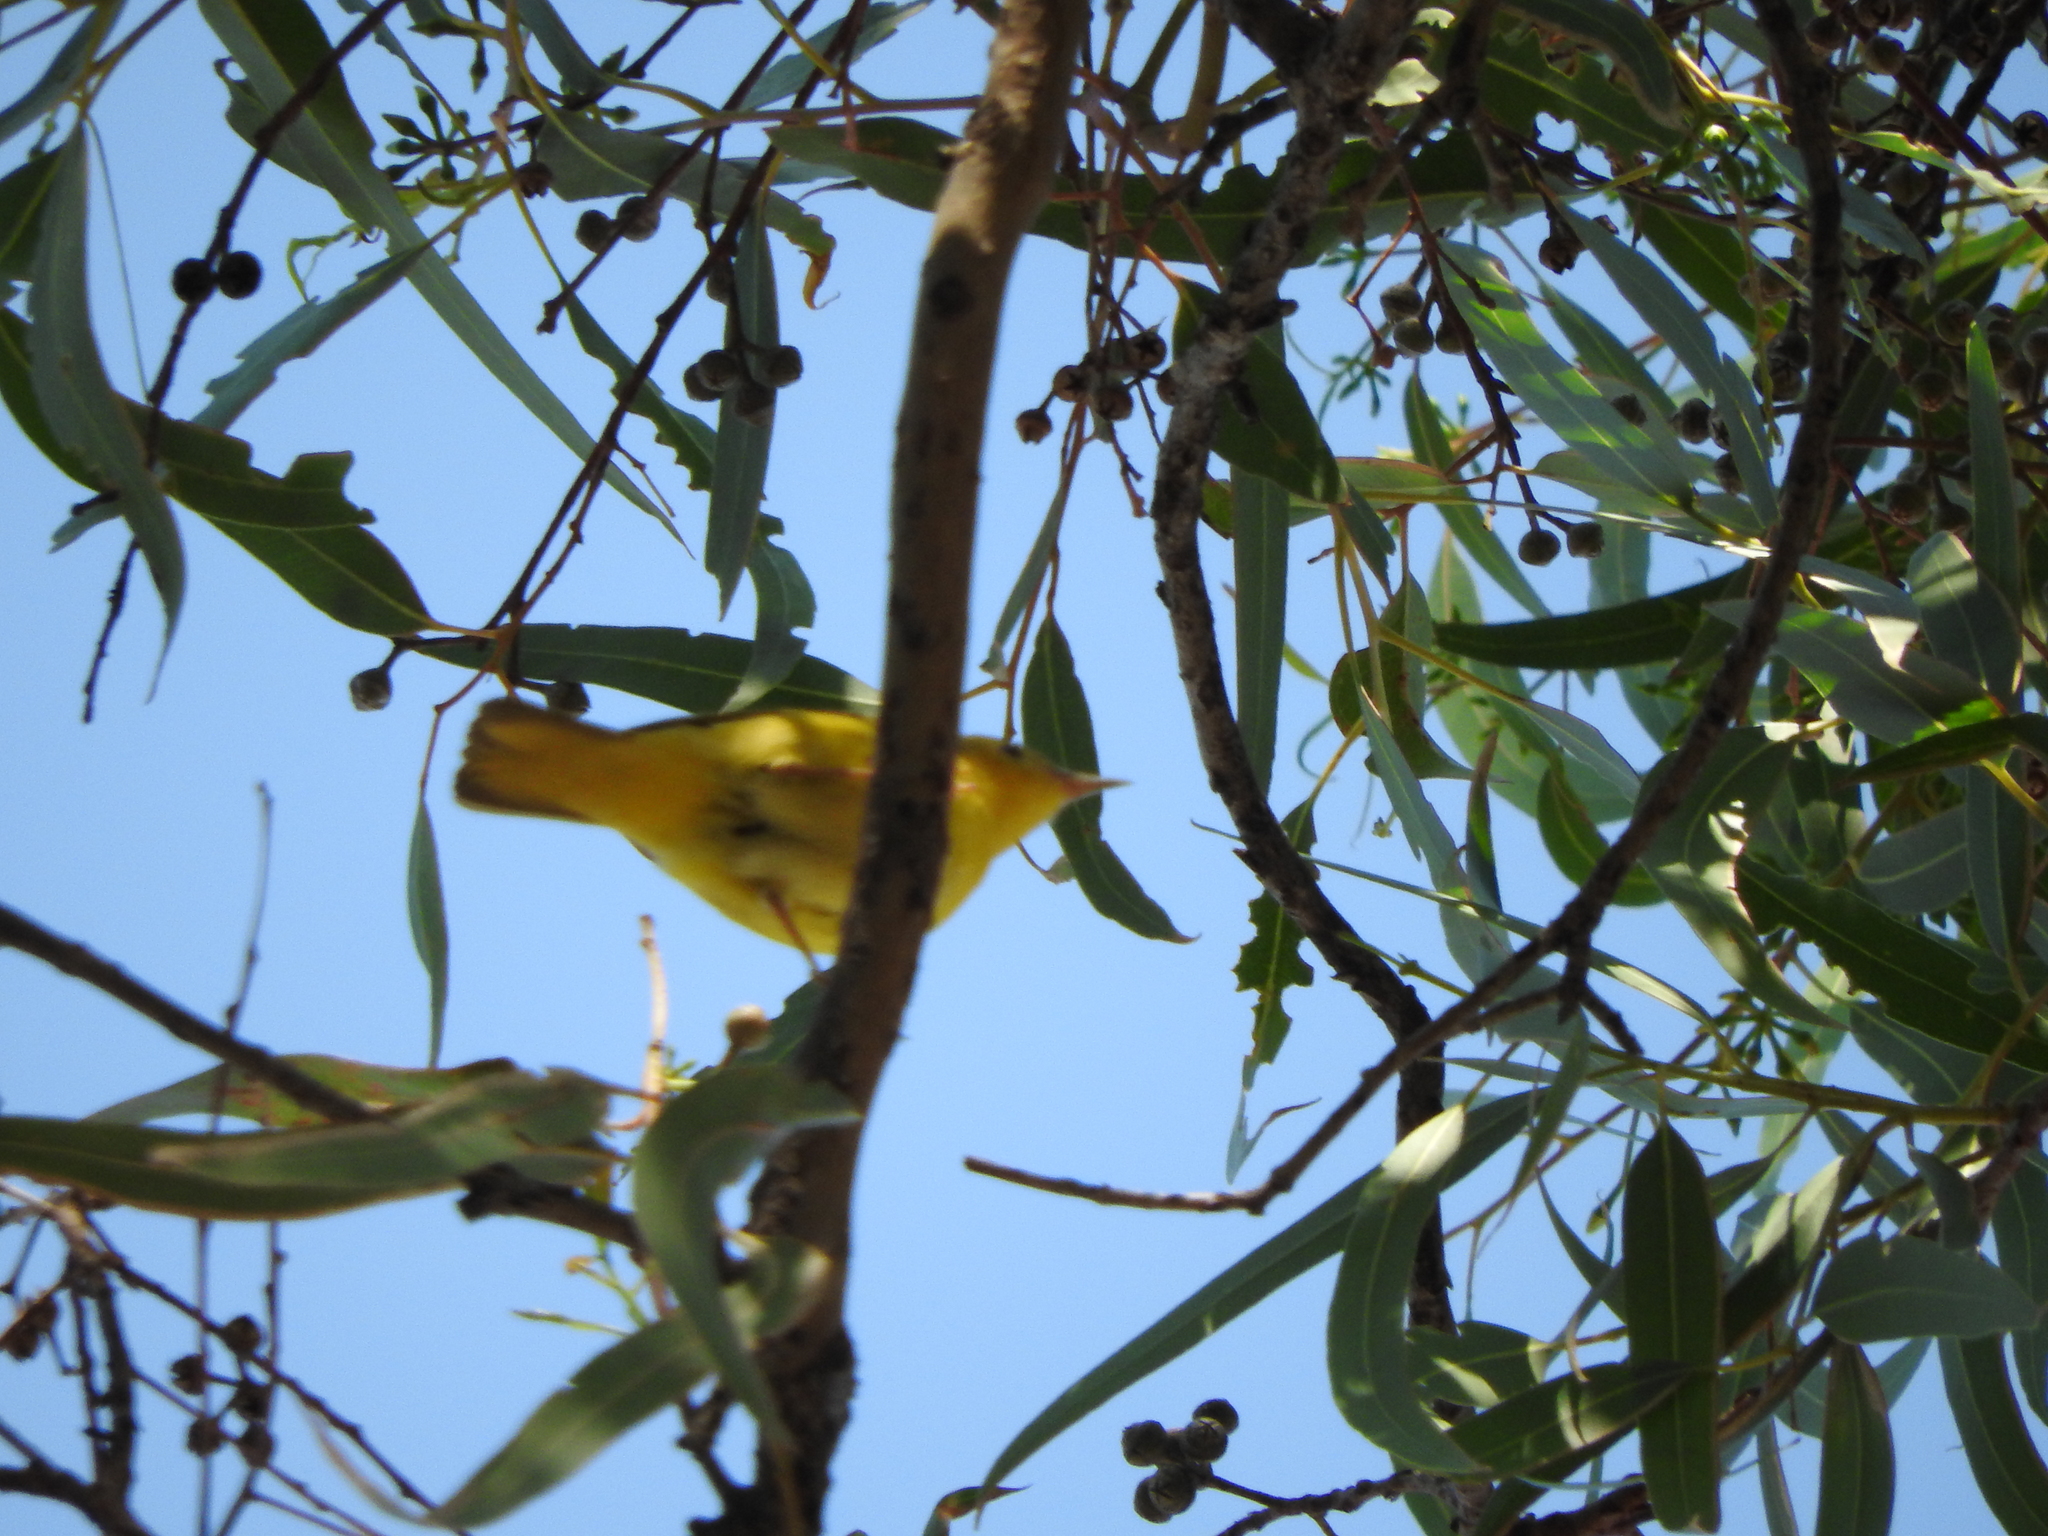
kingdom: Animalia
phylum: Chordata
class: Aves
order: Passeriformes
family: Parulidae
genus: Setophaga
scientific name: Setophaga petechia
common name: Yellow warbler
